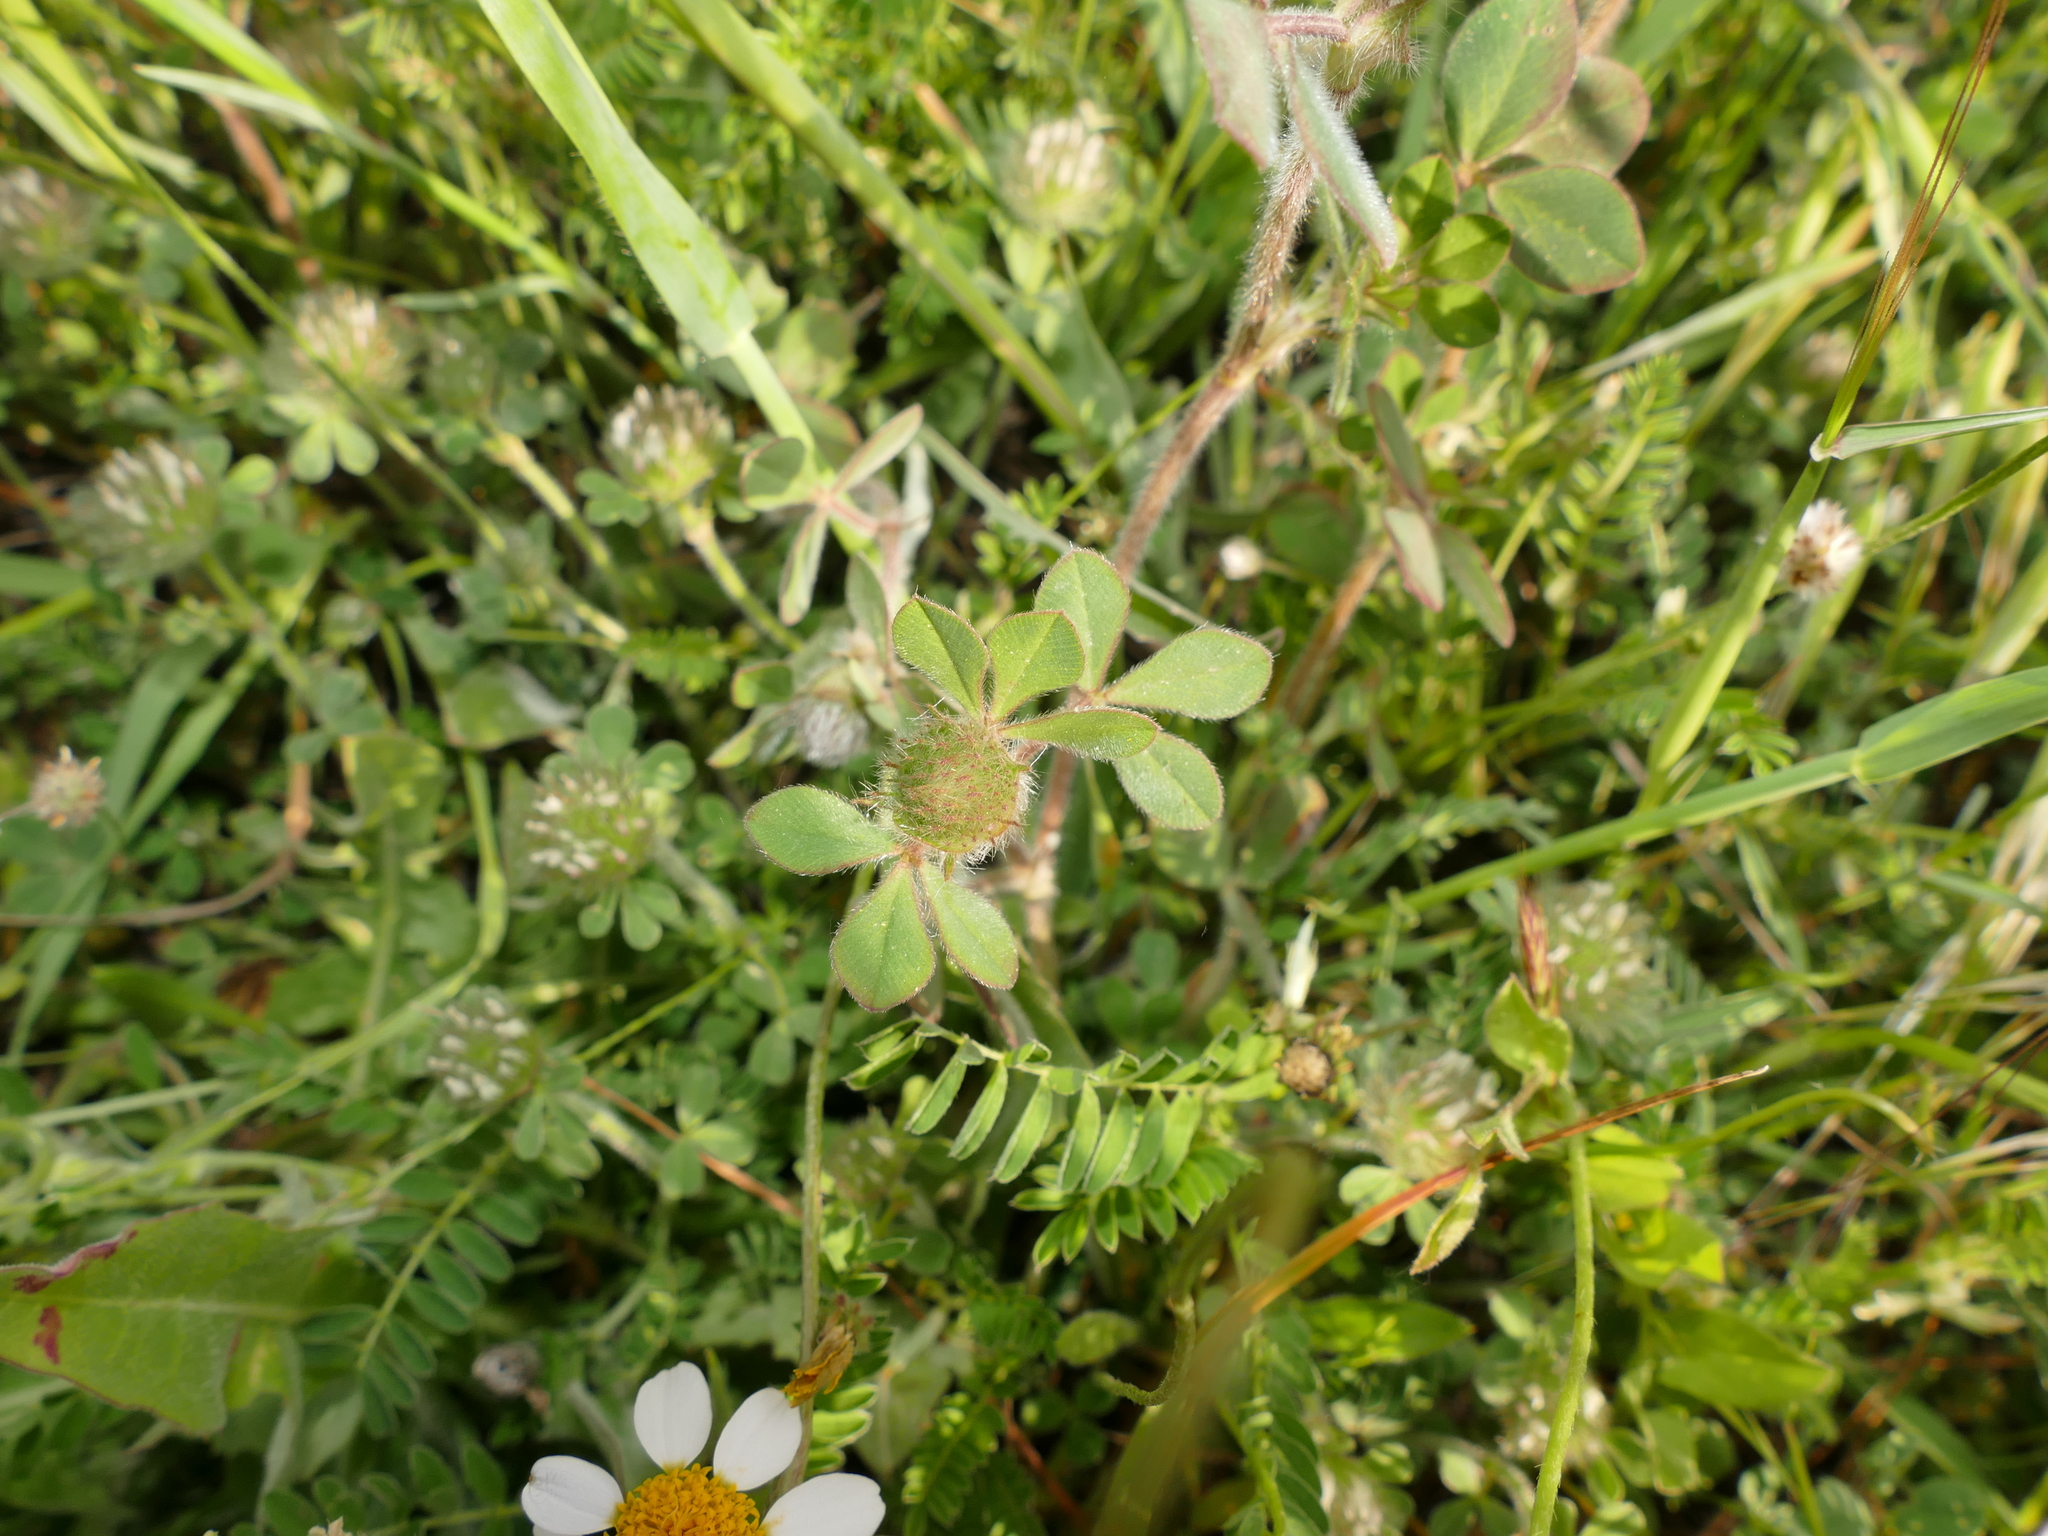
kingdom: Plantae
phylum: Tracheophyta
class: Magnoliopsida
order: Fabales
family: Fabaceae
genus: Trifolium
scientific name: Trifolium hirtum
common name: Rose clover
